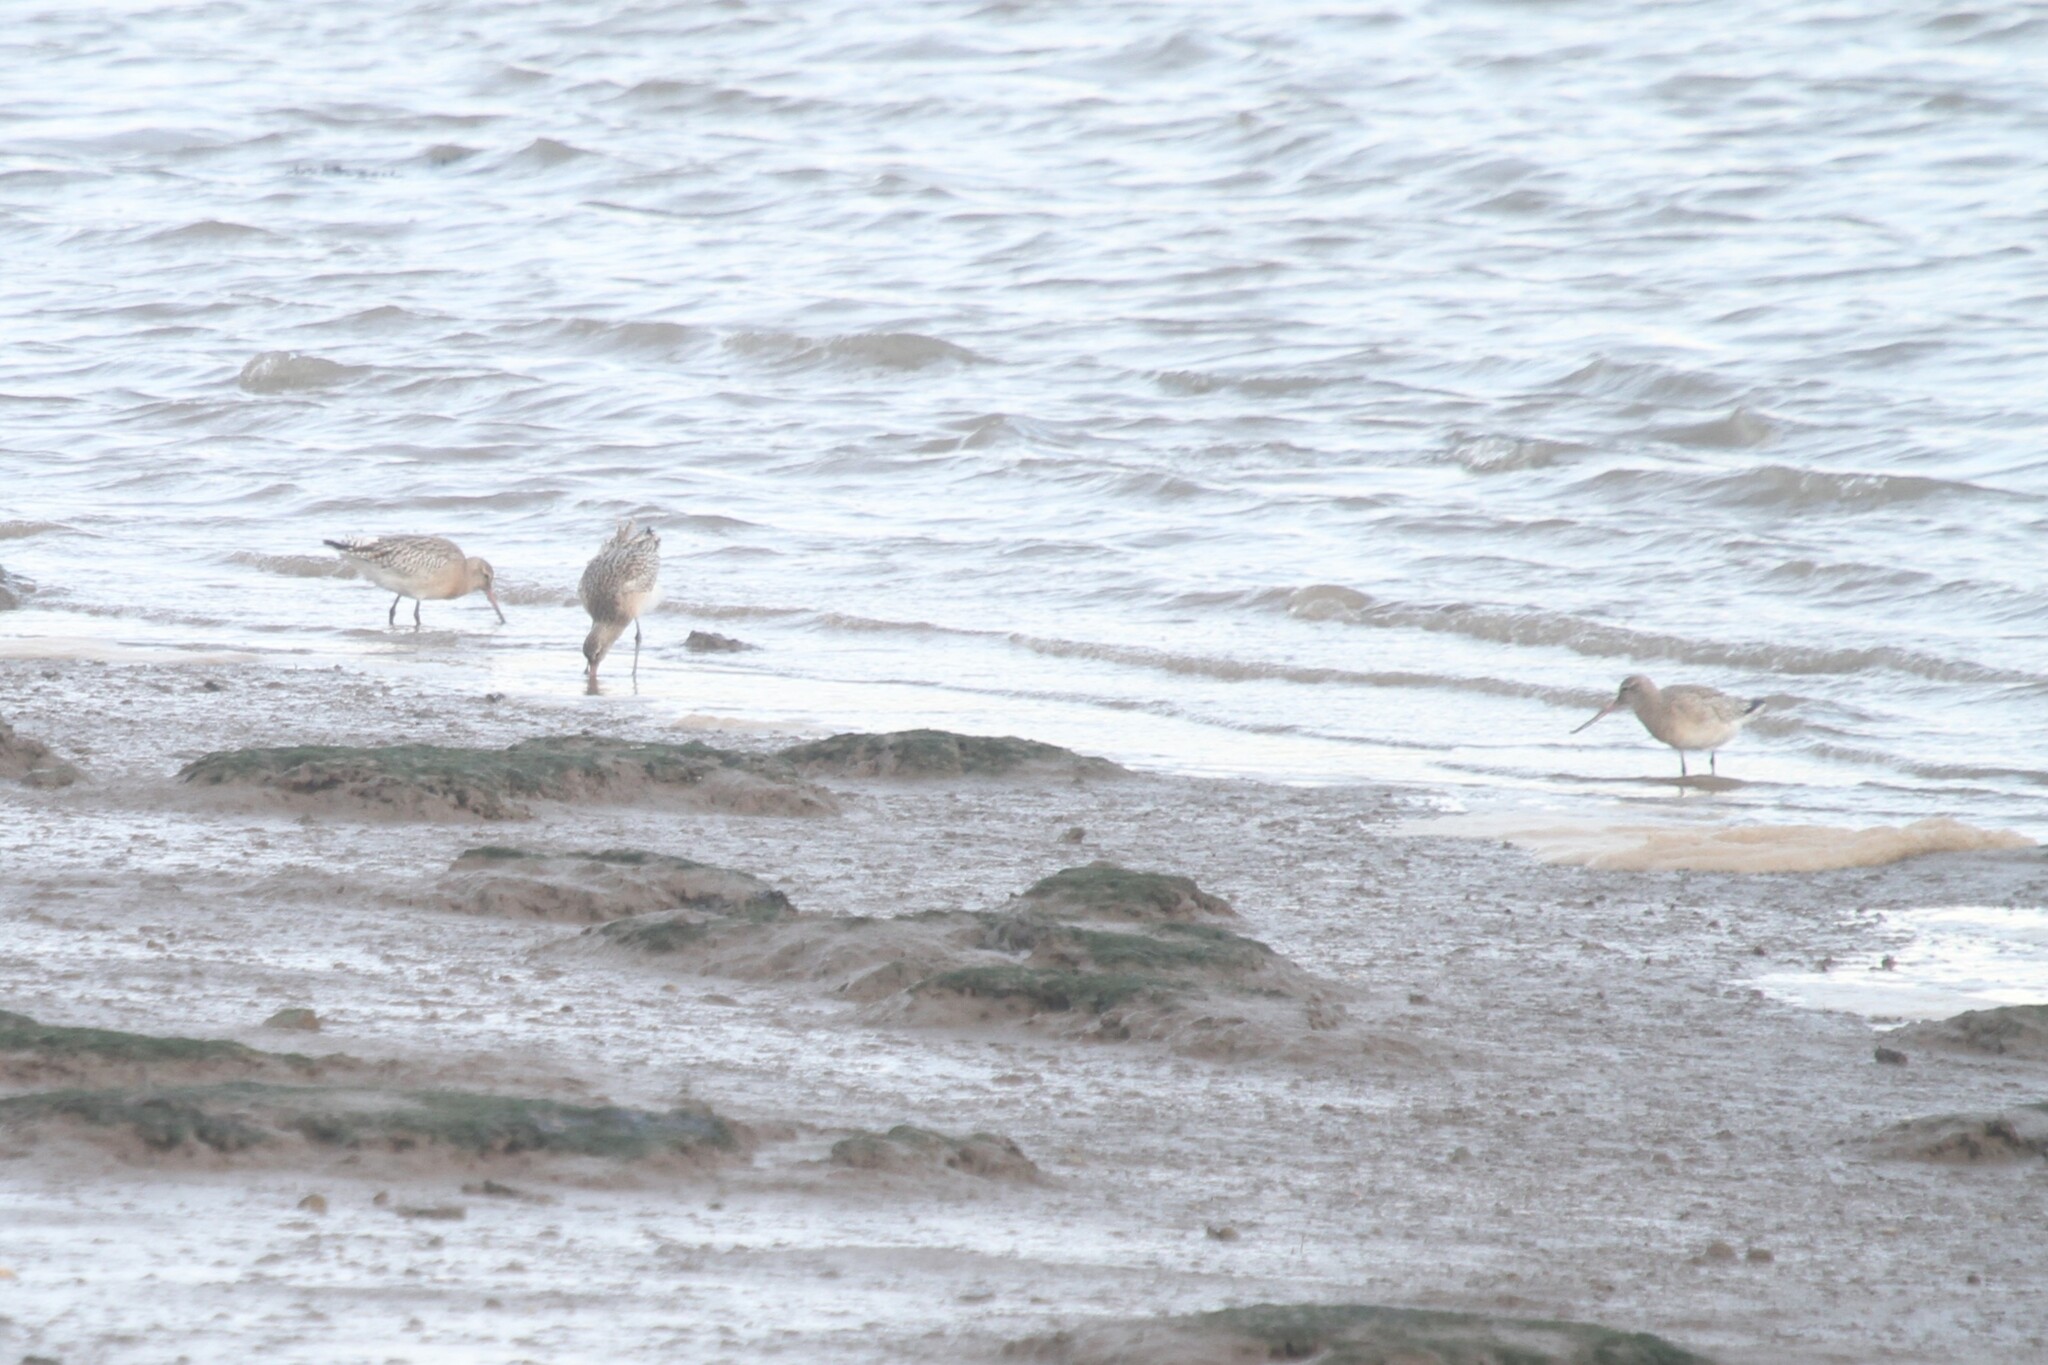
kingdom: Animalia
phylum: Chordata
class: Aves
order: Charadriiformes
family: Scolopacidae
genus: Limosa
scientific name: Limosa lapponica
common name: Bar-tailed godwit
